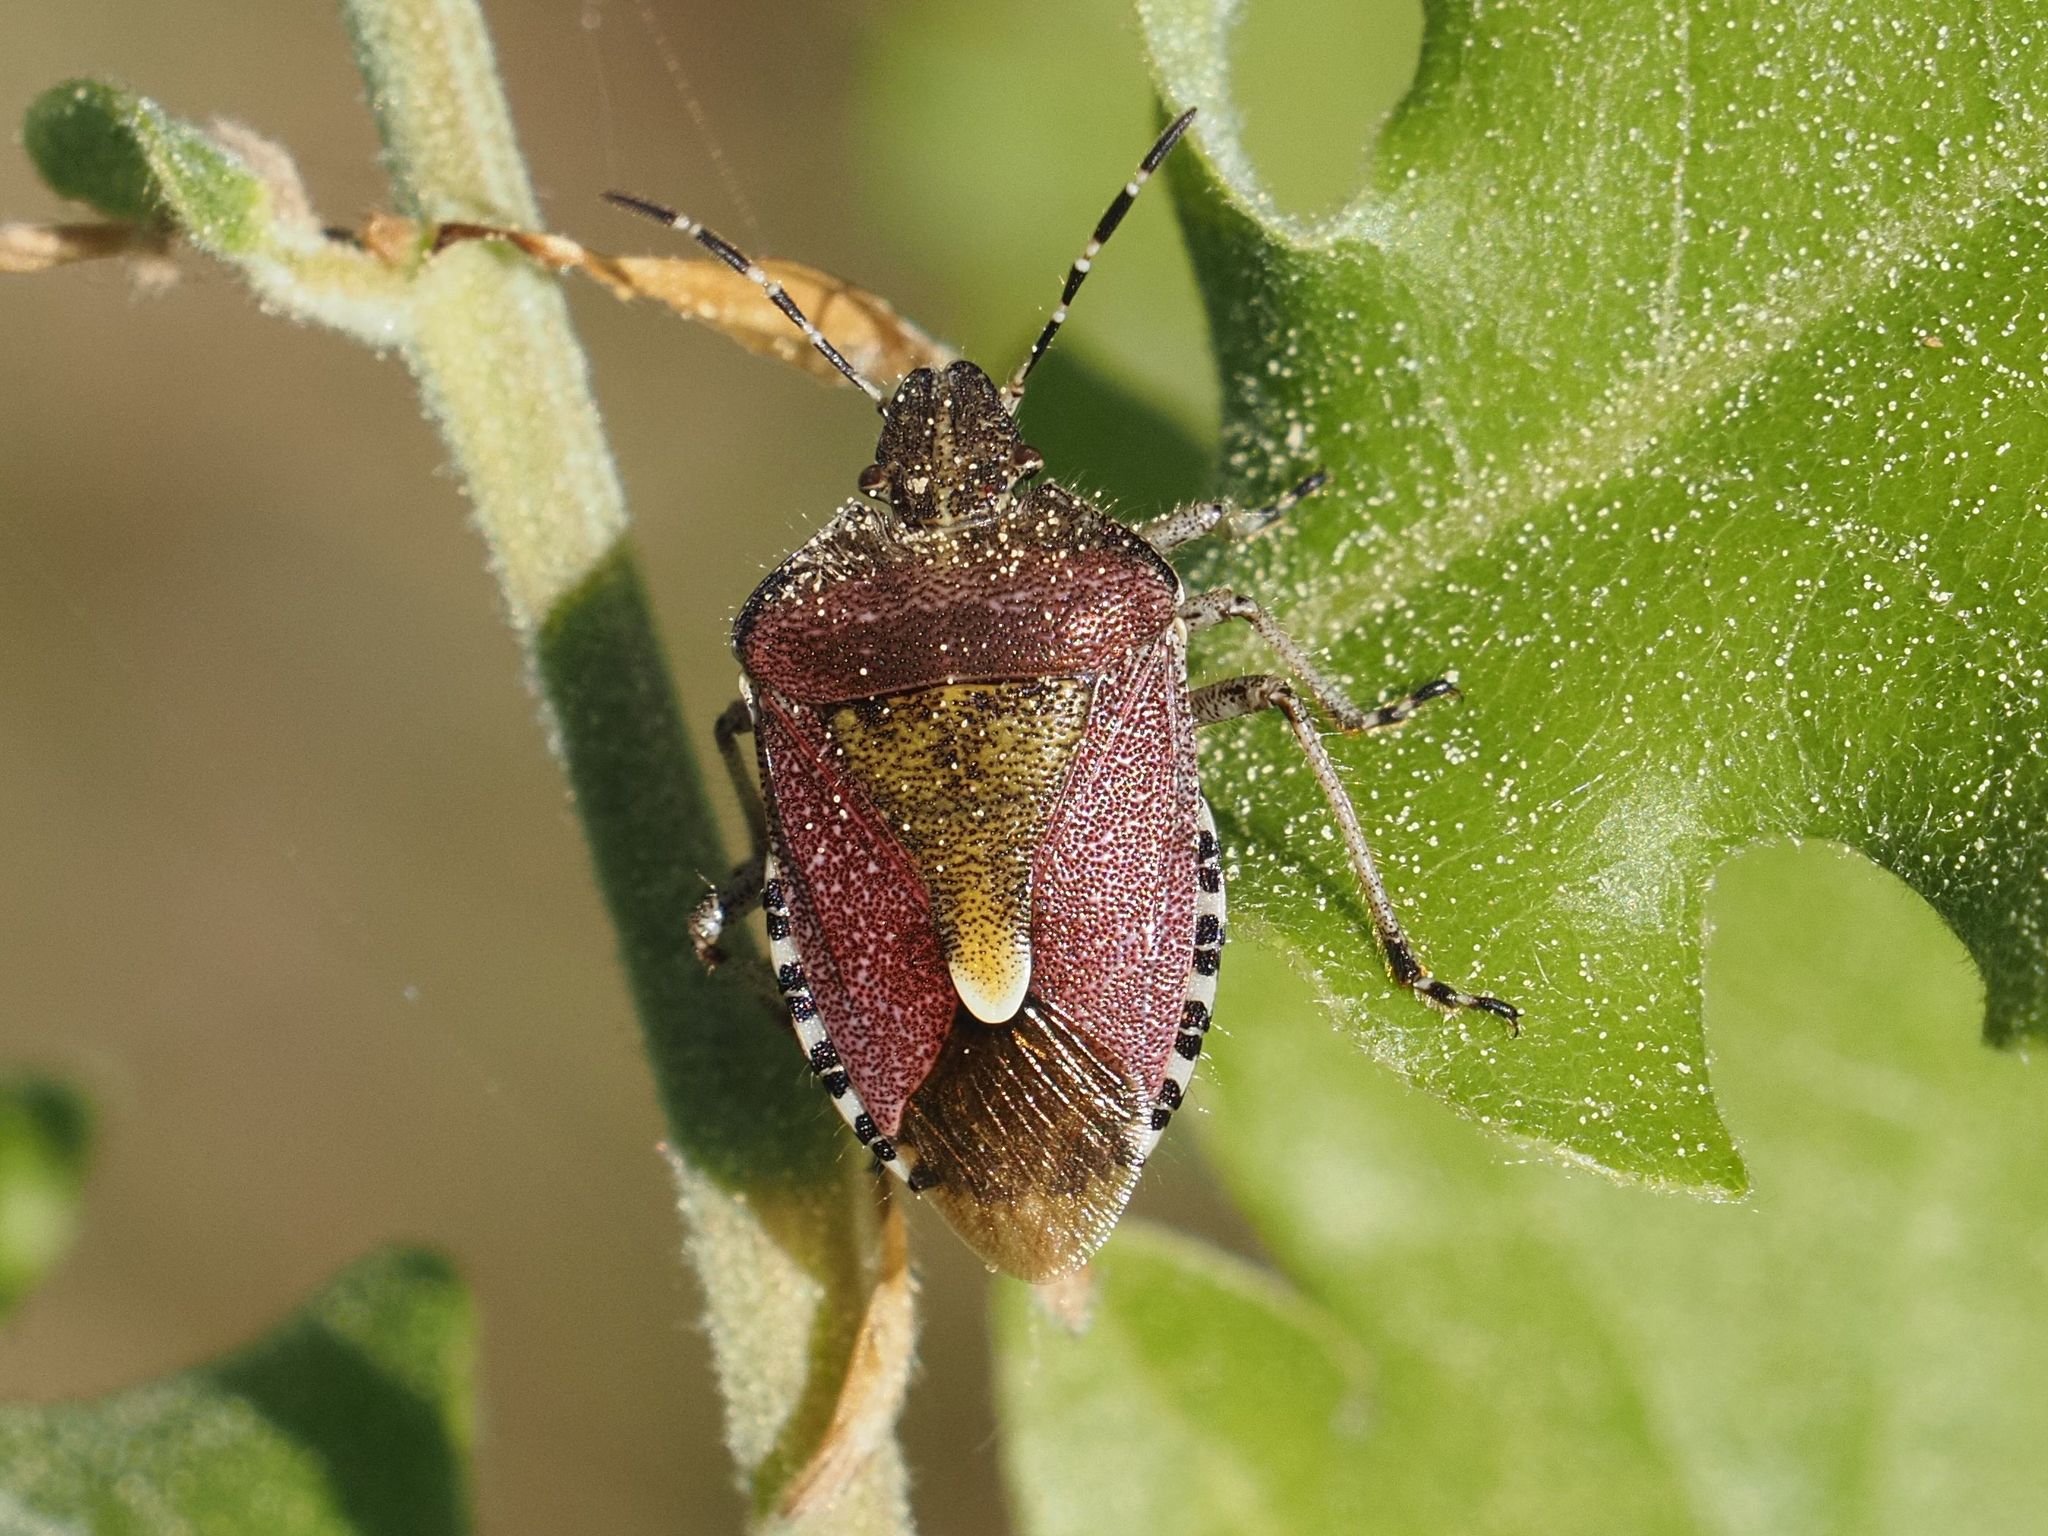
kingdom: Animalia
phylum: Arthropoda
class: Insecta
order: Hemiptera
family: Pentatomidae
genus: Dolycoris
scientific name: Dolycoris baccarum
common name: Sloe bug
